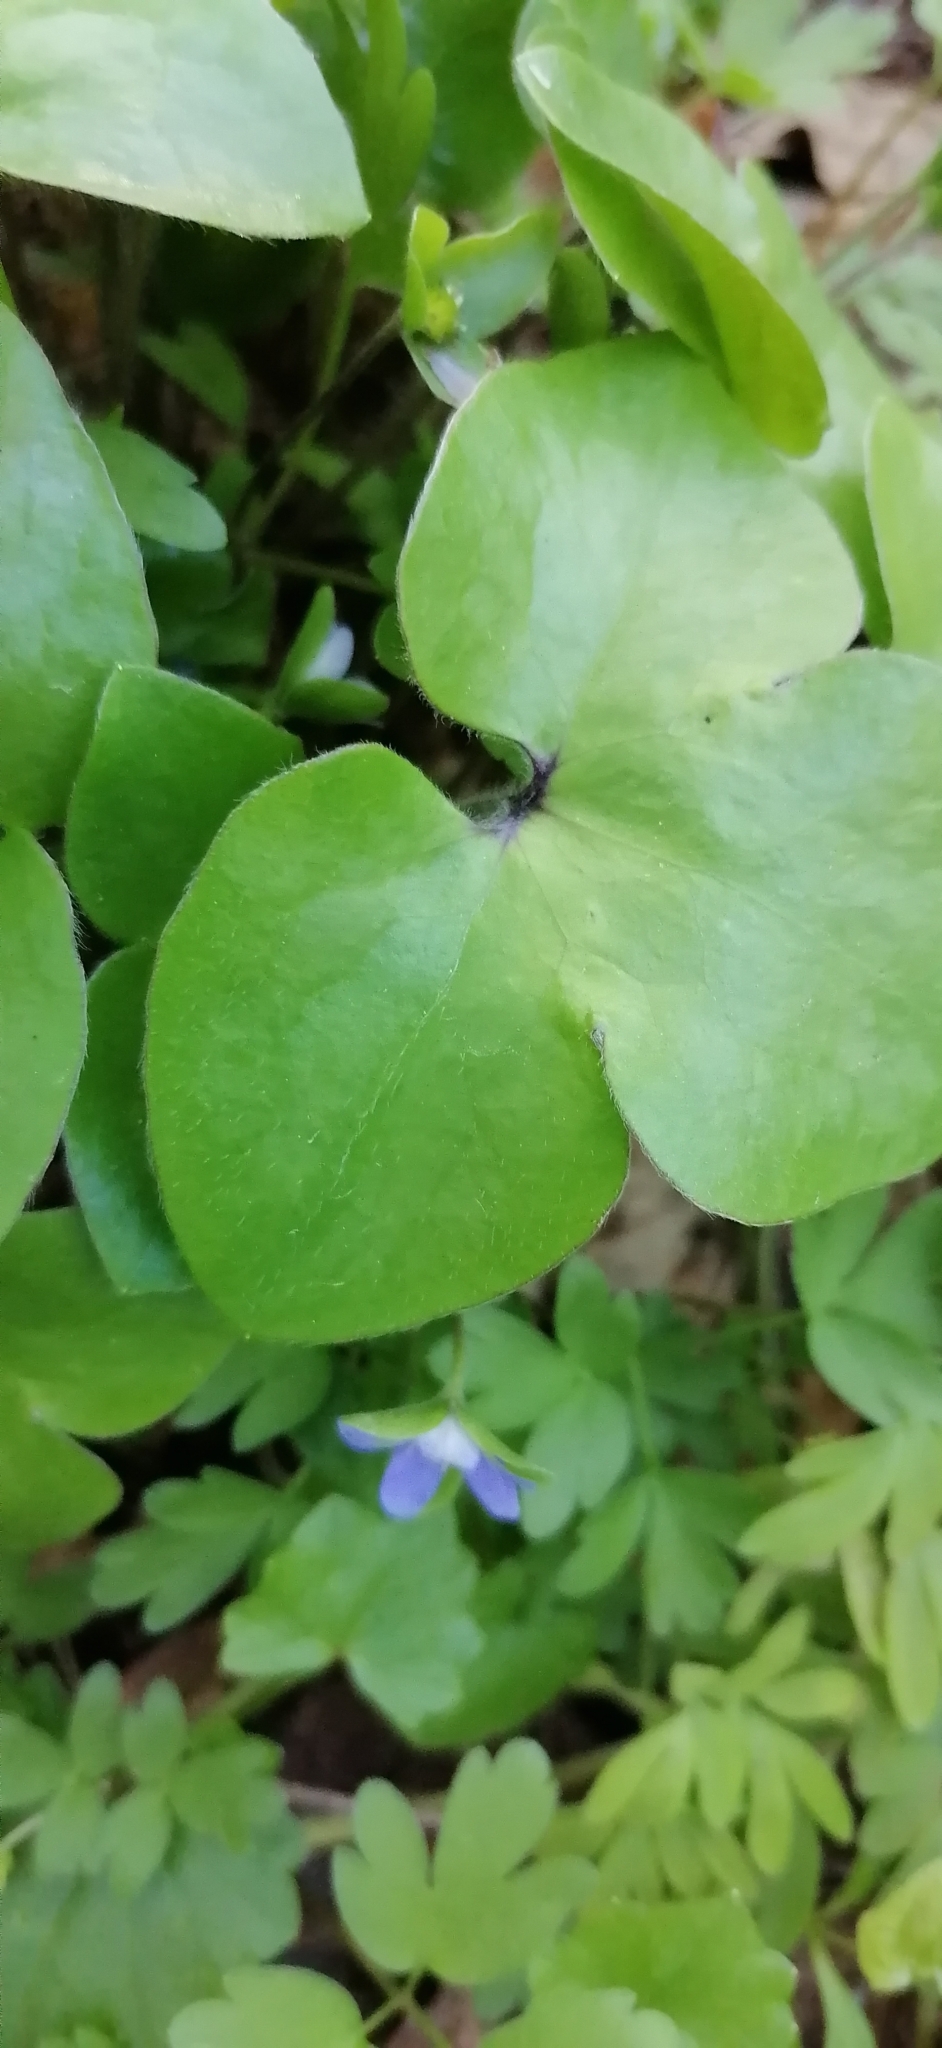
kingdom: Plantae
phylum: Tracheophyta
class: Magnoliopsida
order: Ranunculales
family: Ranunculaceae
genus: Hepatica
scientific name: Hepatica nobilis
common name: Liverleaf
